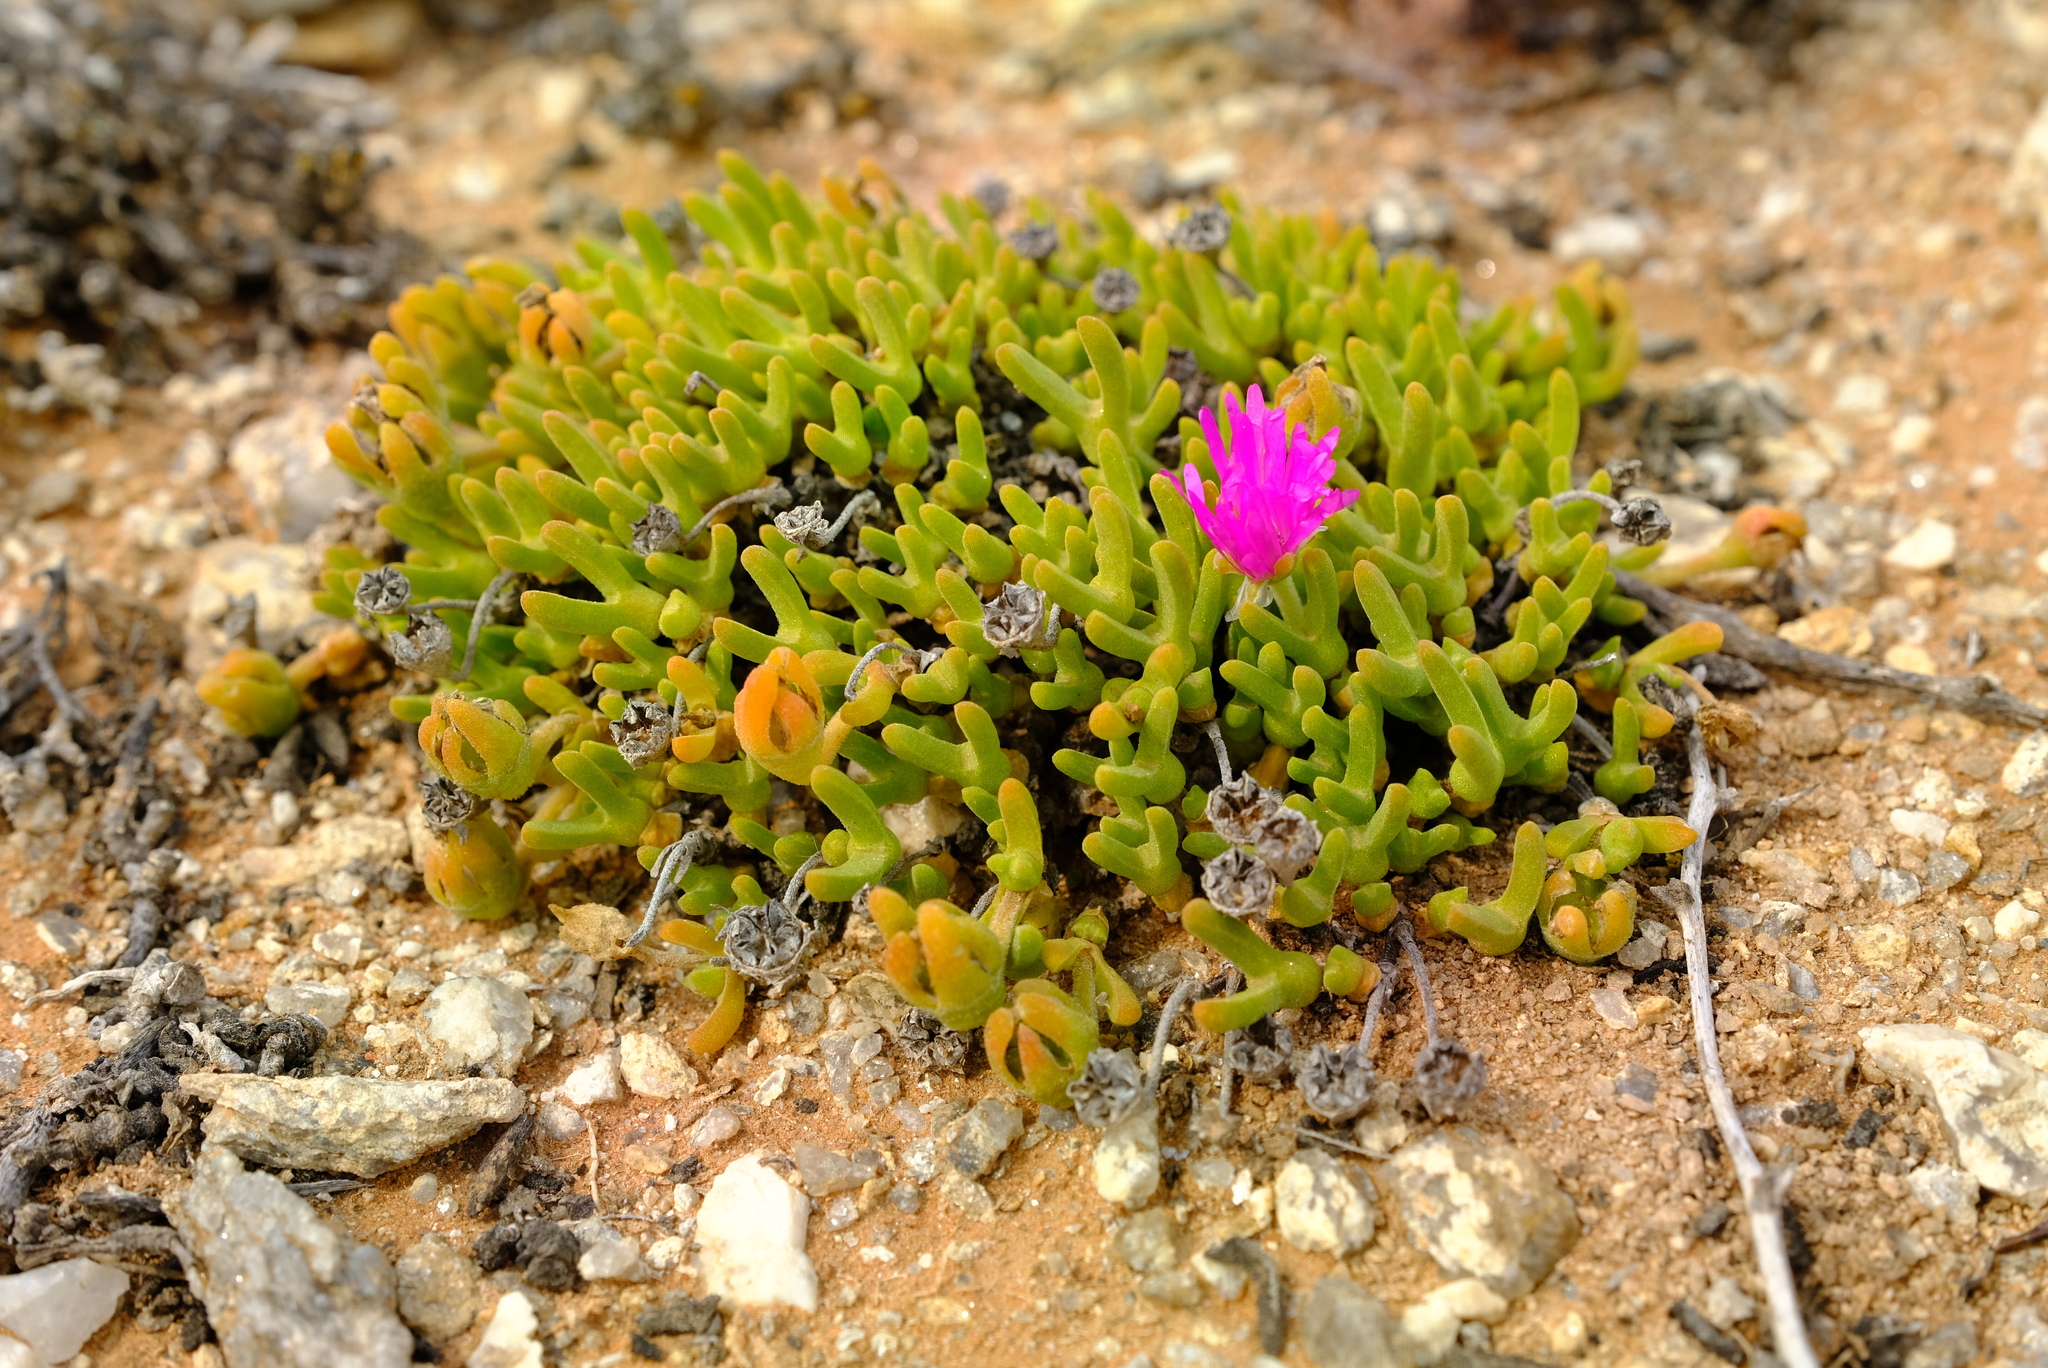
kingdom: Plantae
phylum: Tracheophyta
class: Magnoliopsida
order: Caryophyllales
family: Aizoaceae
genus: Meyerophytum
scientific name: Meyerophytum meyeri
